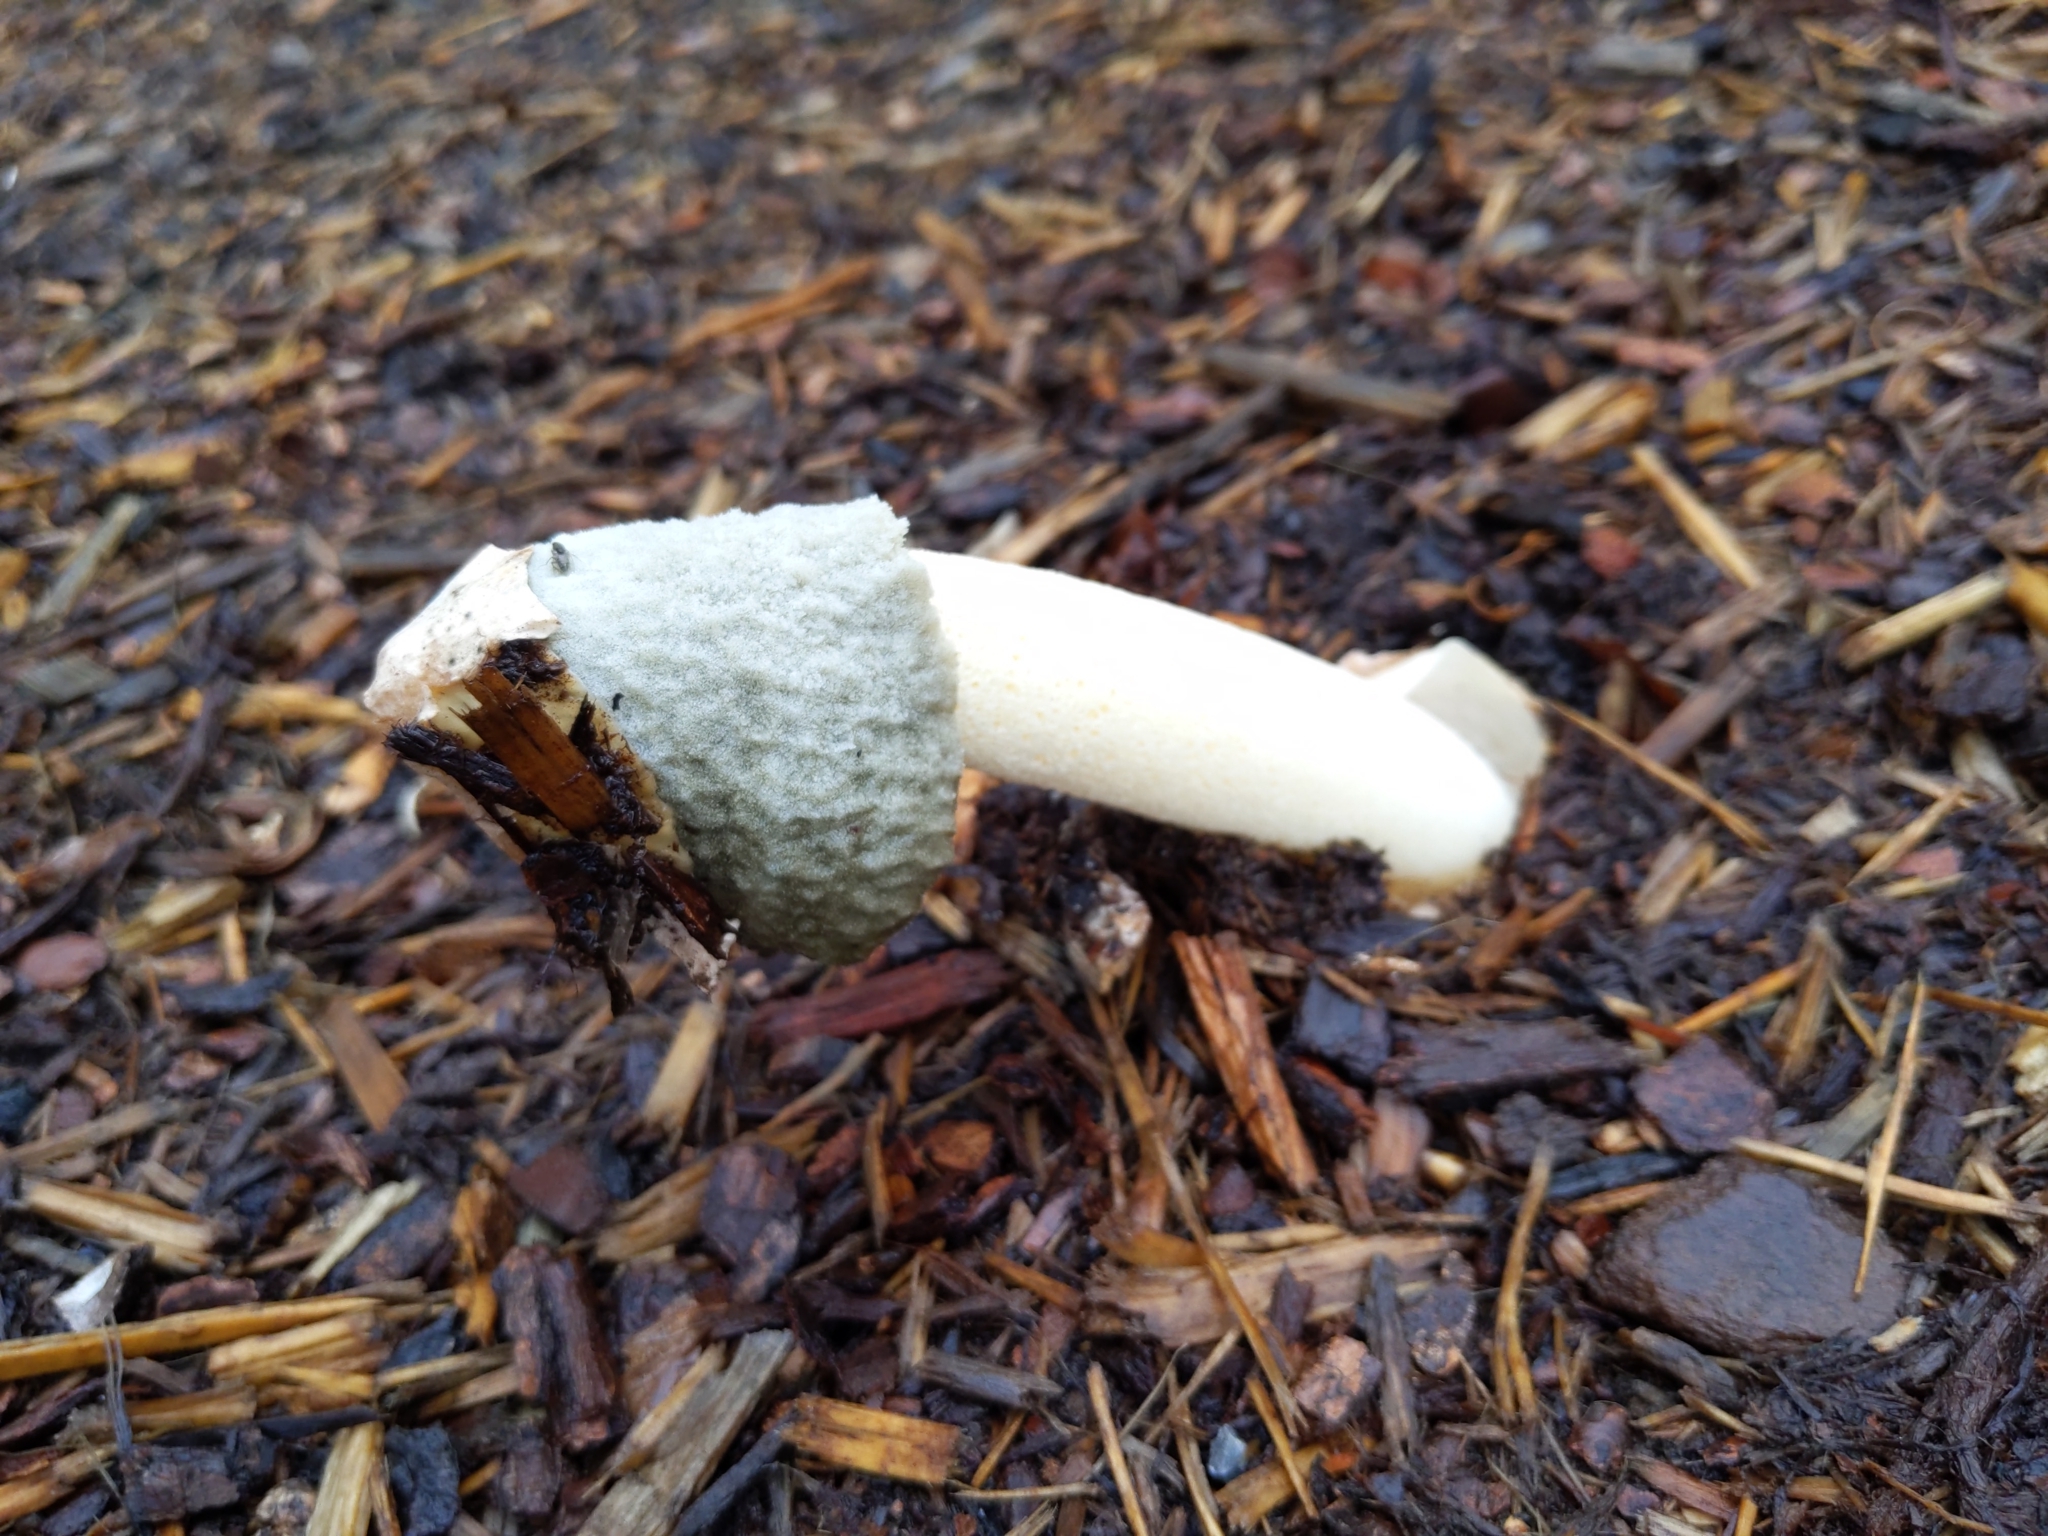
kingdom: Fungi
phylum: Basidiomycota
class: Agaricomycetes
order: Phallales
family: Phallaceae
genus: Phallus
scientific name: Phallus ravenelii
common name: Ravenel's stinkhorn
